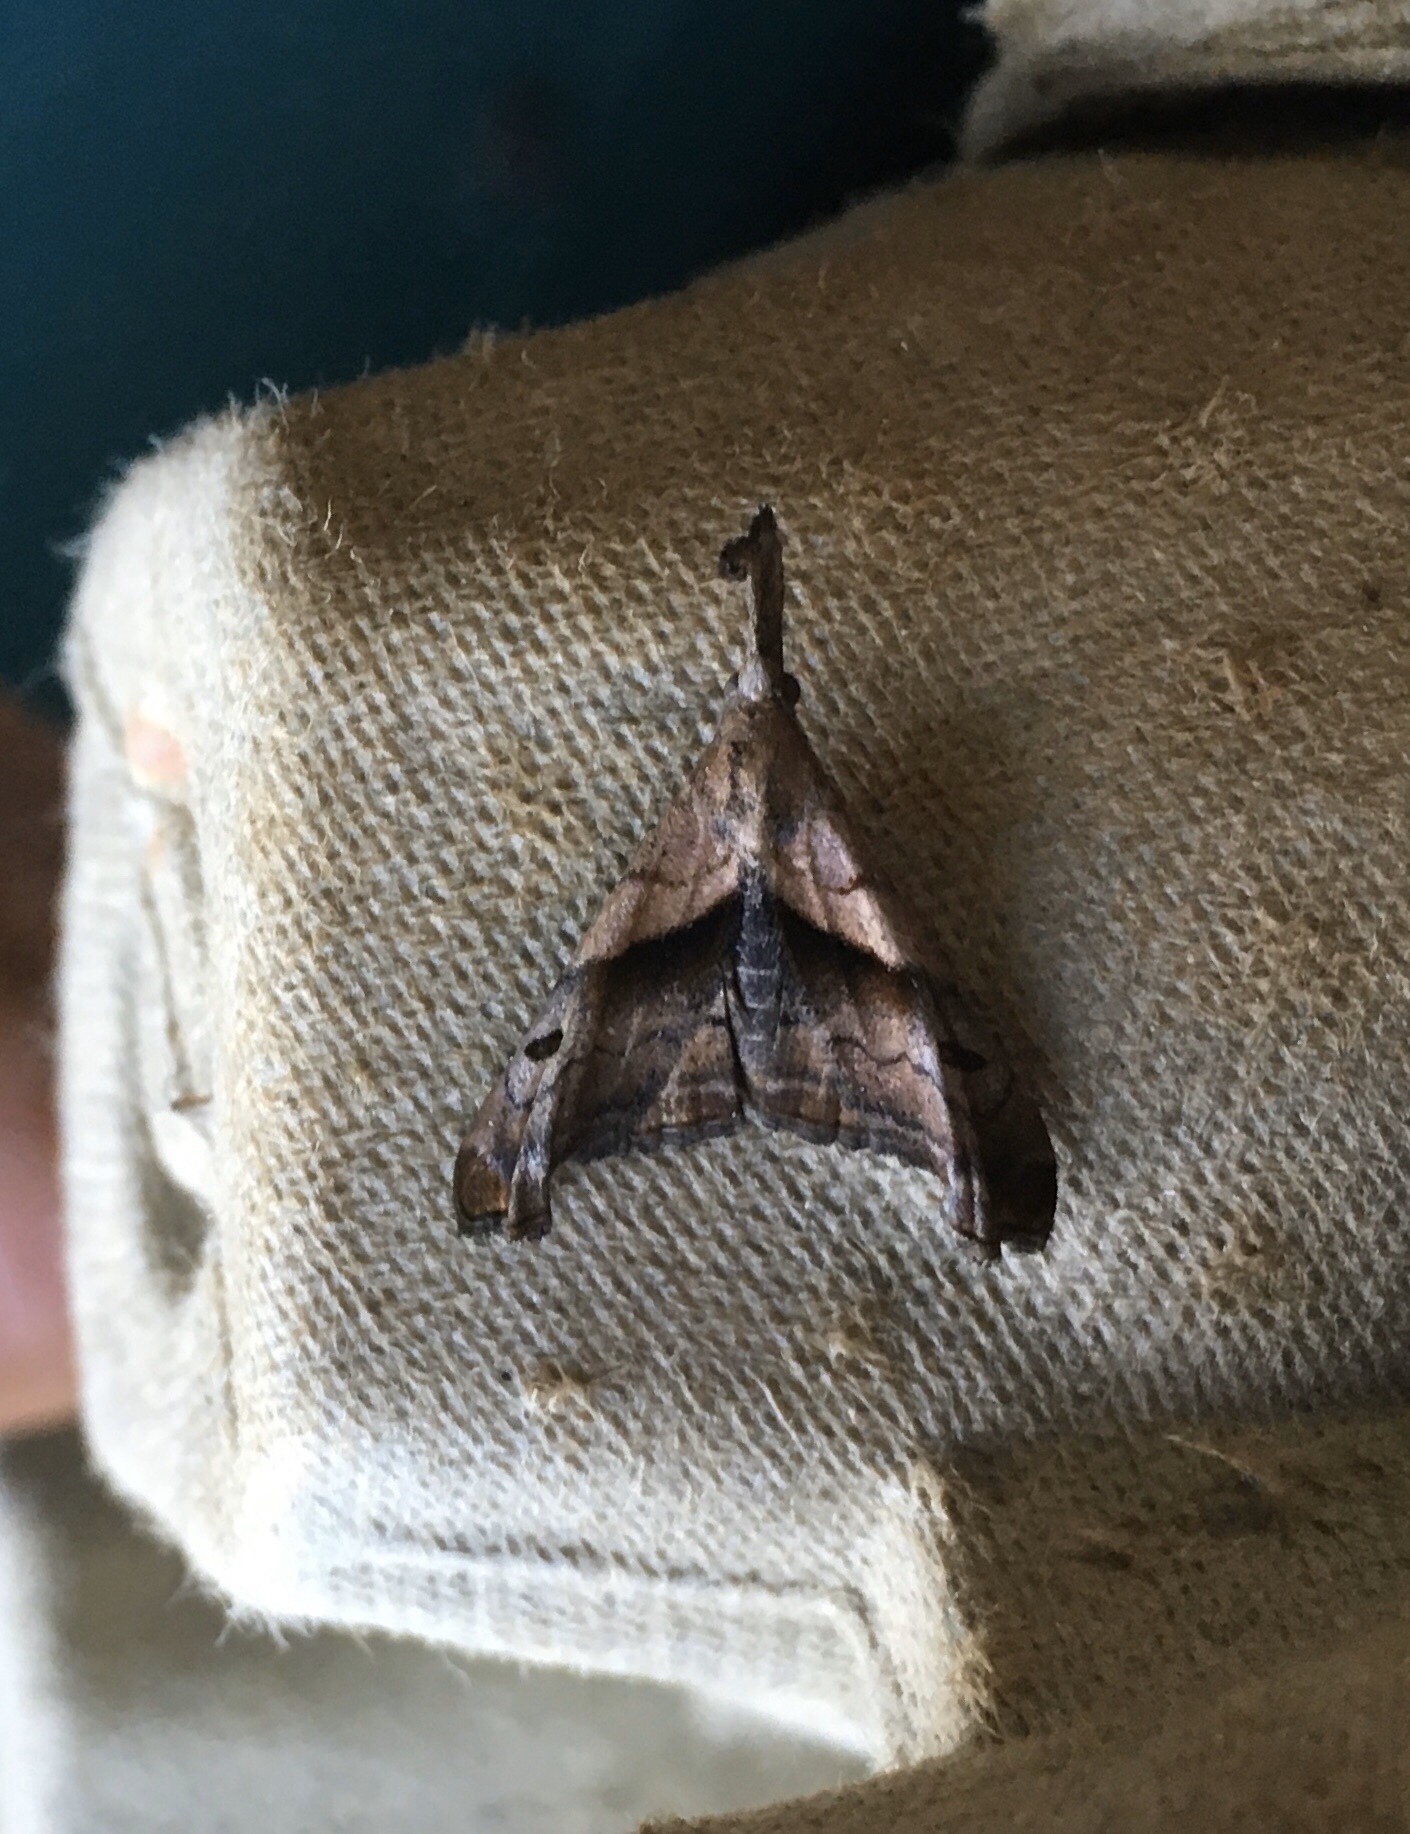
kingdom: Animalia
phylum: Arthropoda
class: Insecta
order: Lepidoptera
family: Erebidae
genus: Palthis
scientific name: Palthis angulalis
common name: Dark-spotted palthis moth
